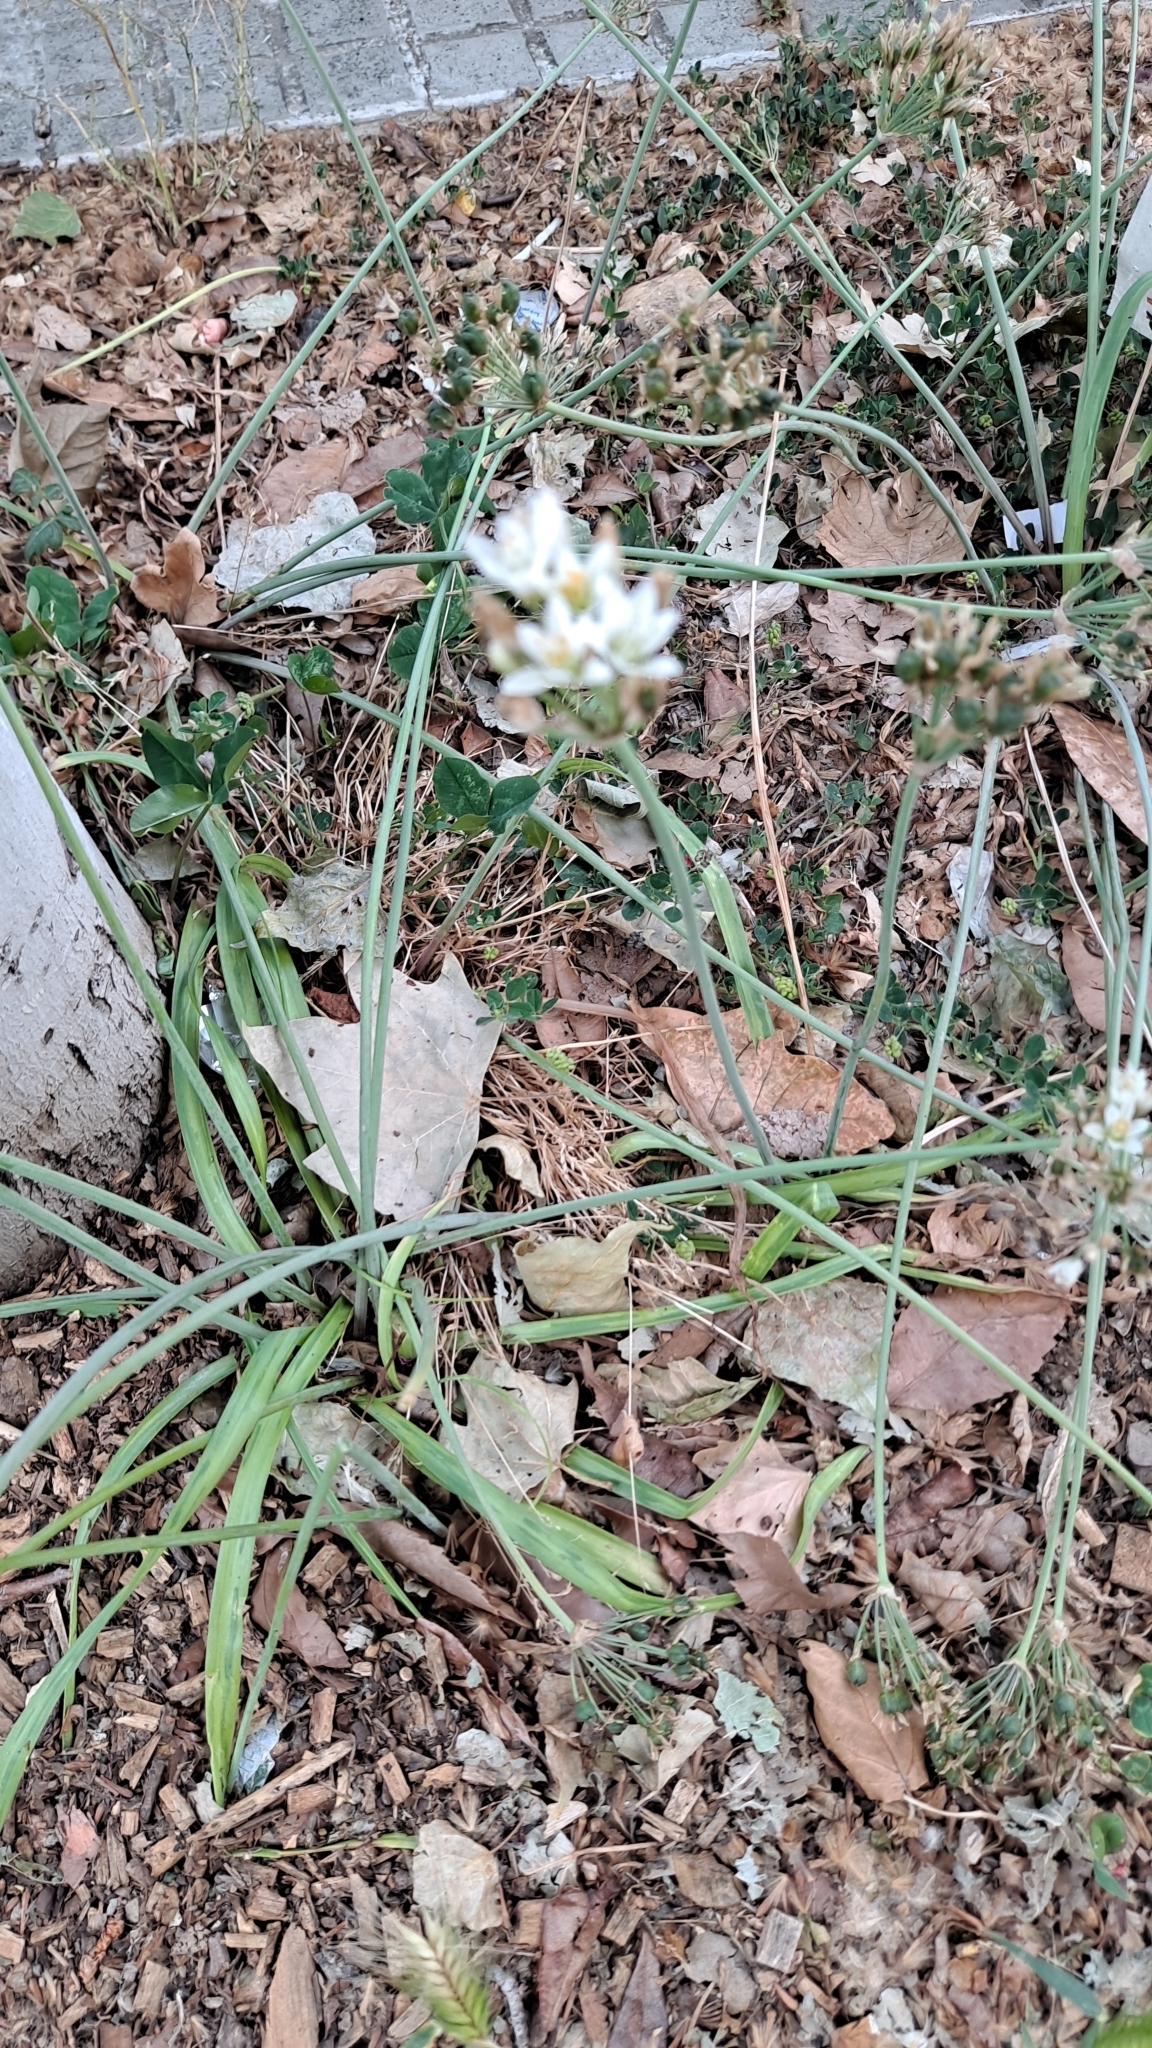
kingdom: Plantae
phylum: Tracheophyta
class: Liliopsida
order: Asparagales
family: Amaryllidaceae
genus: Nothoscordum
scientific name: Nothoscordum gracile
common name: Slender false garlic
